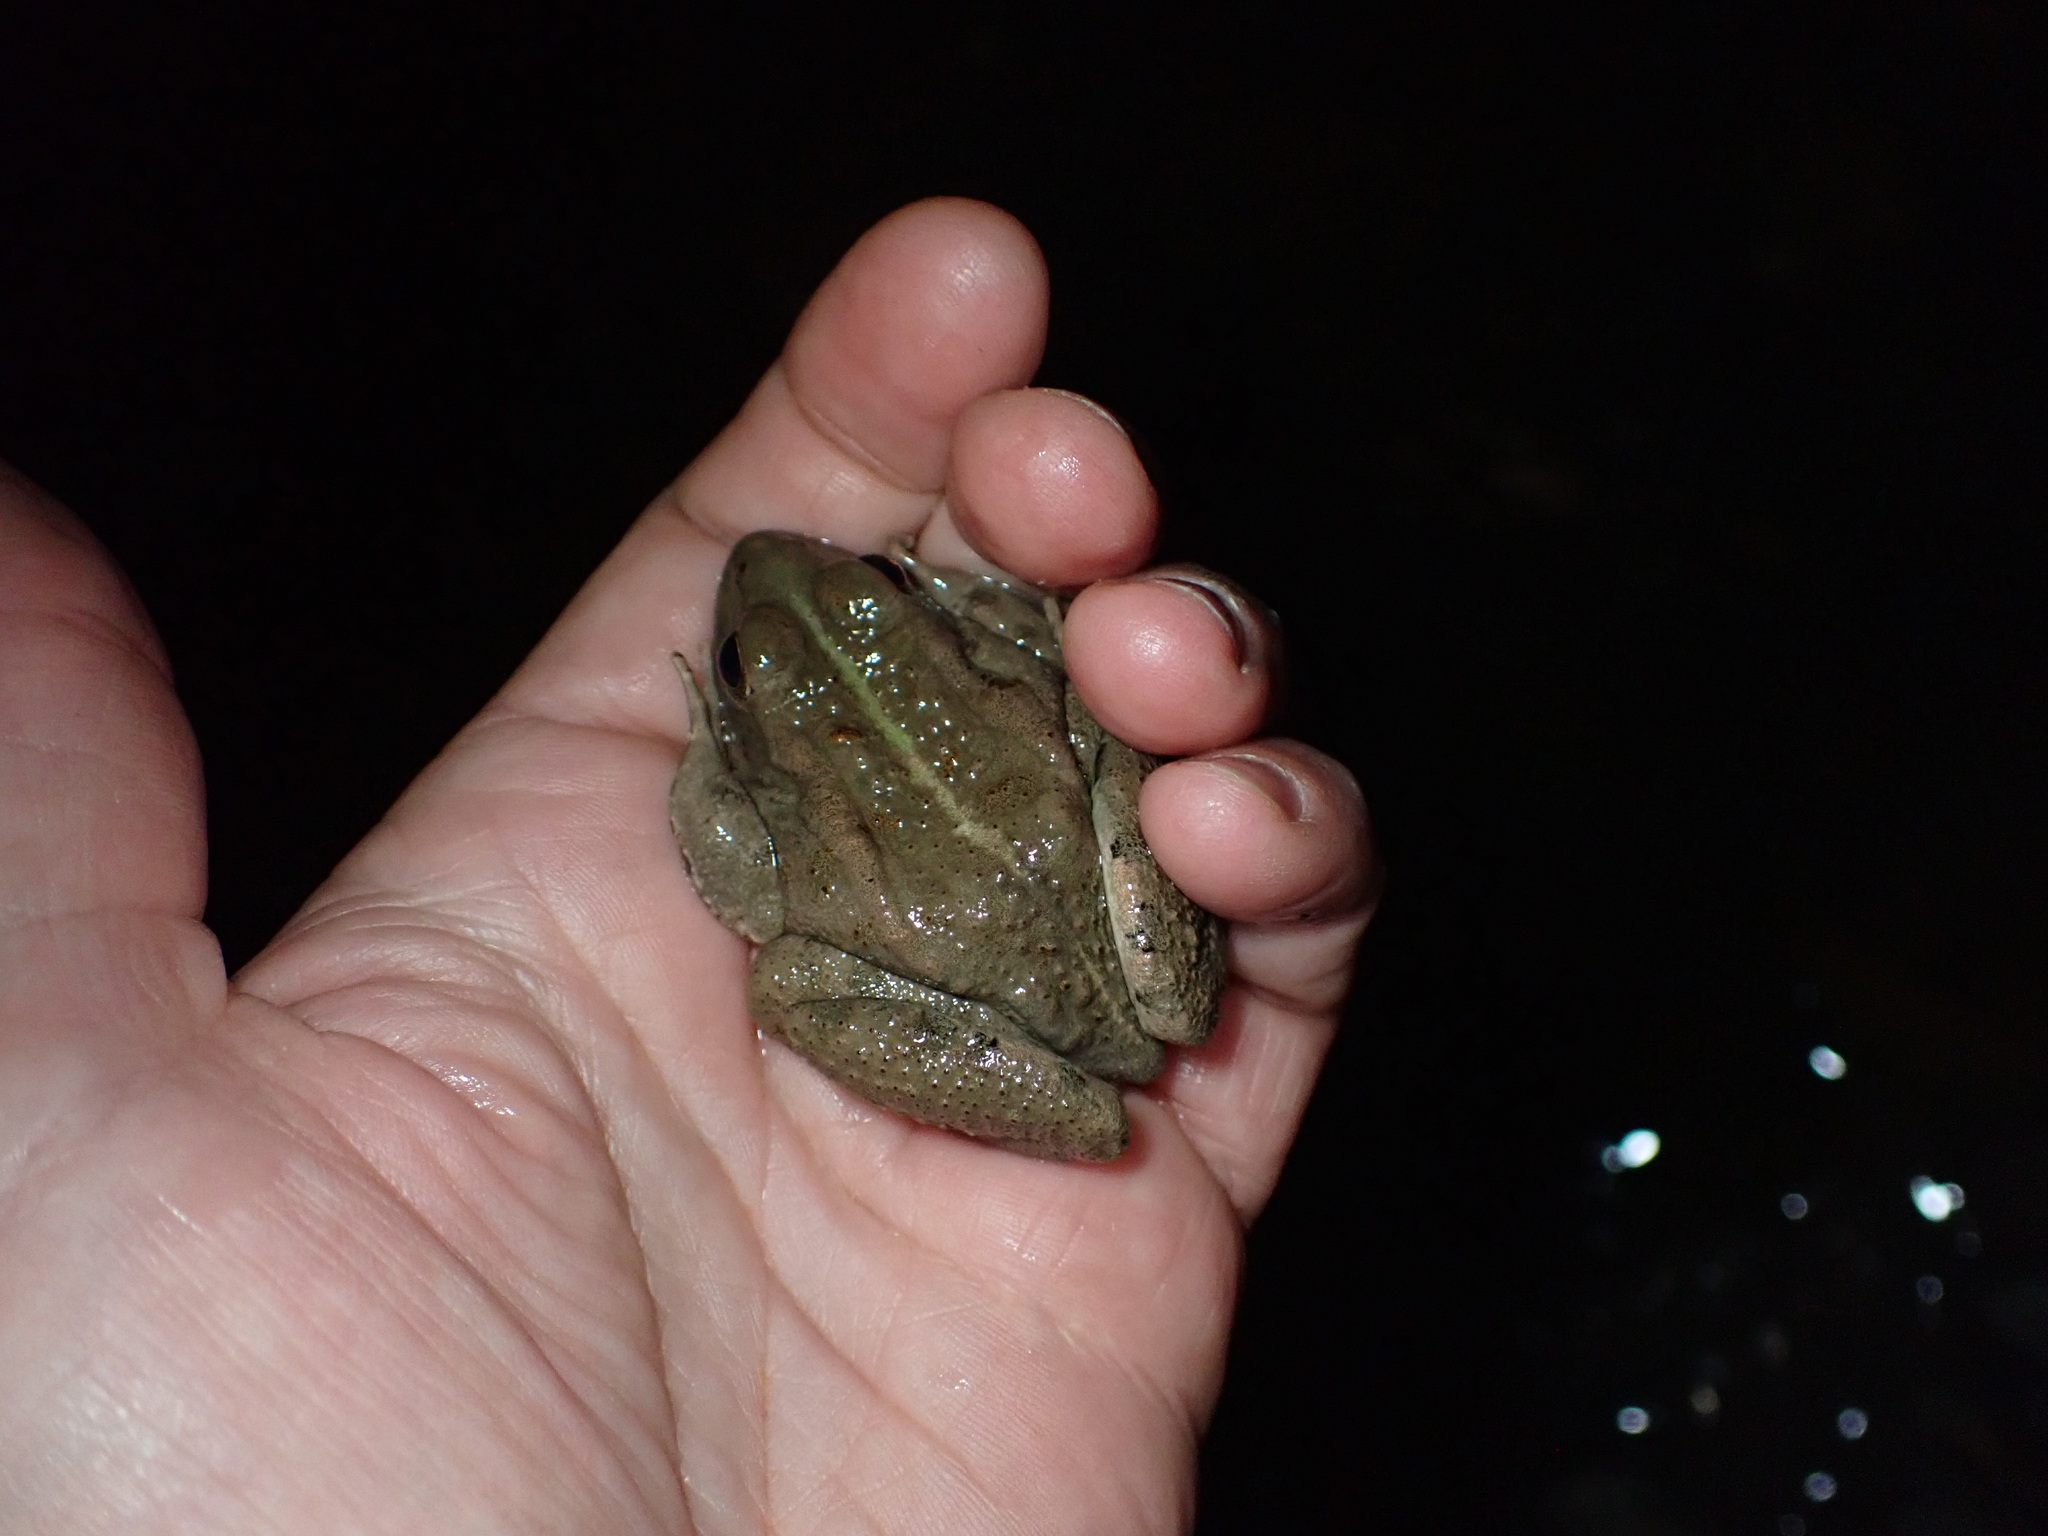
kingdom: Animalia
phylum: Chordata
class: Amphibia
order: Anura
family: Ranidae
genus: Pelophylax
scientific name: Pelophylax saharicus
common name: Sahara frog
